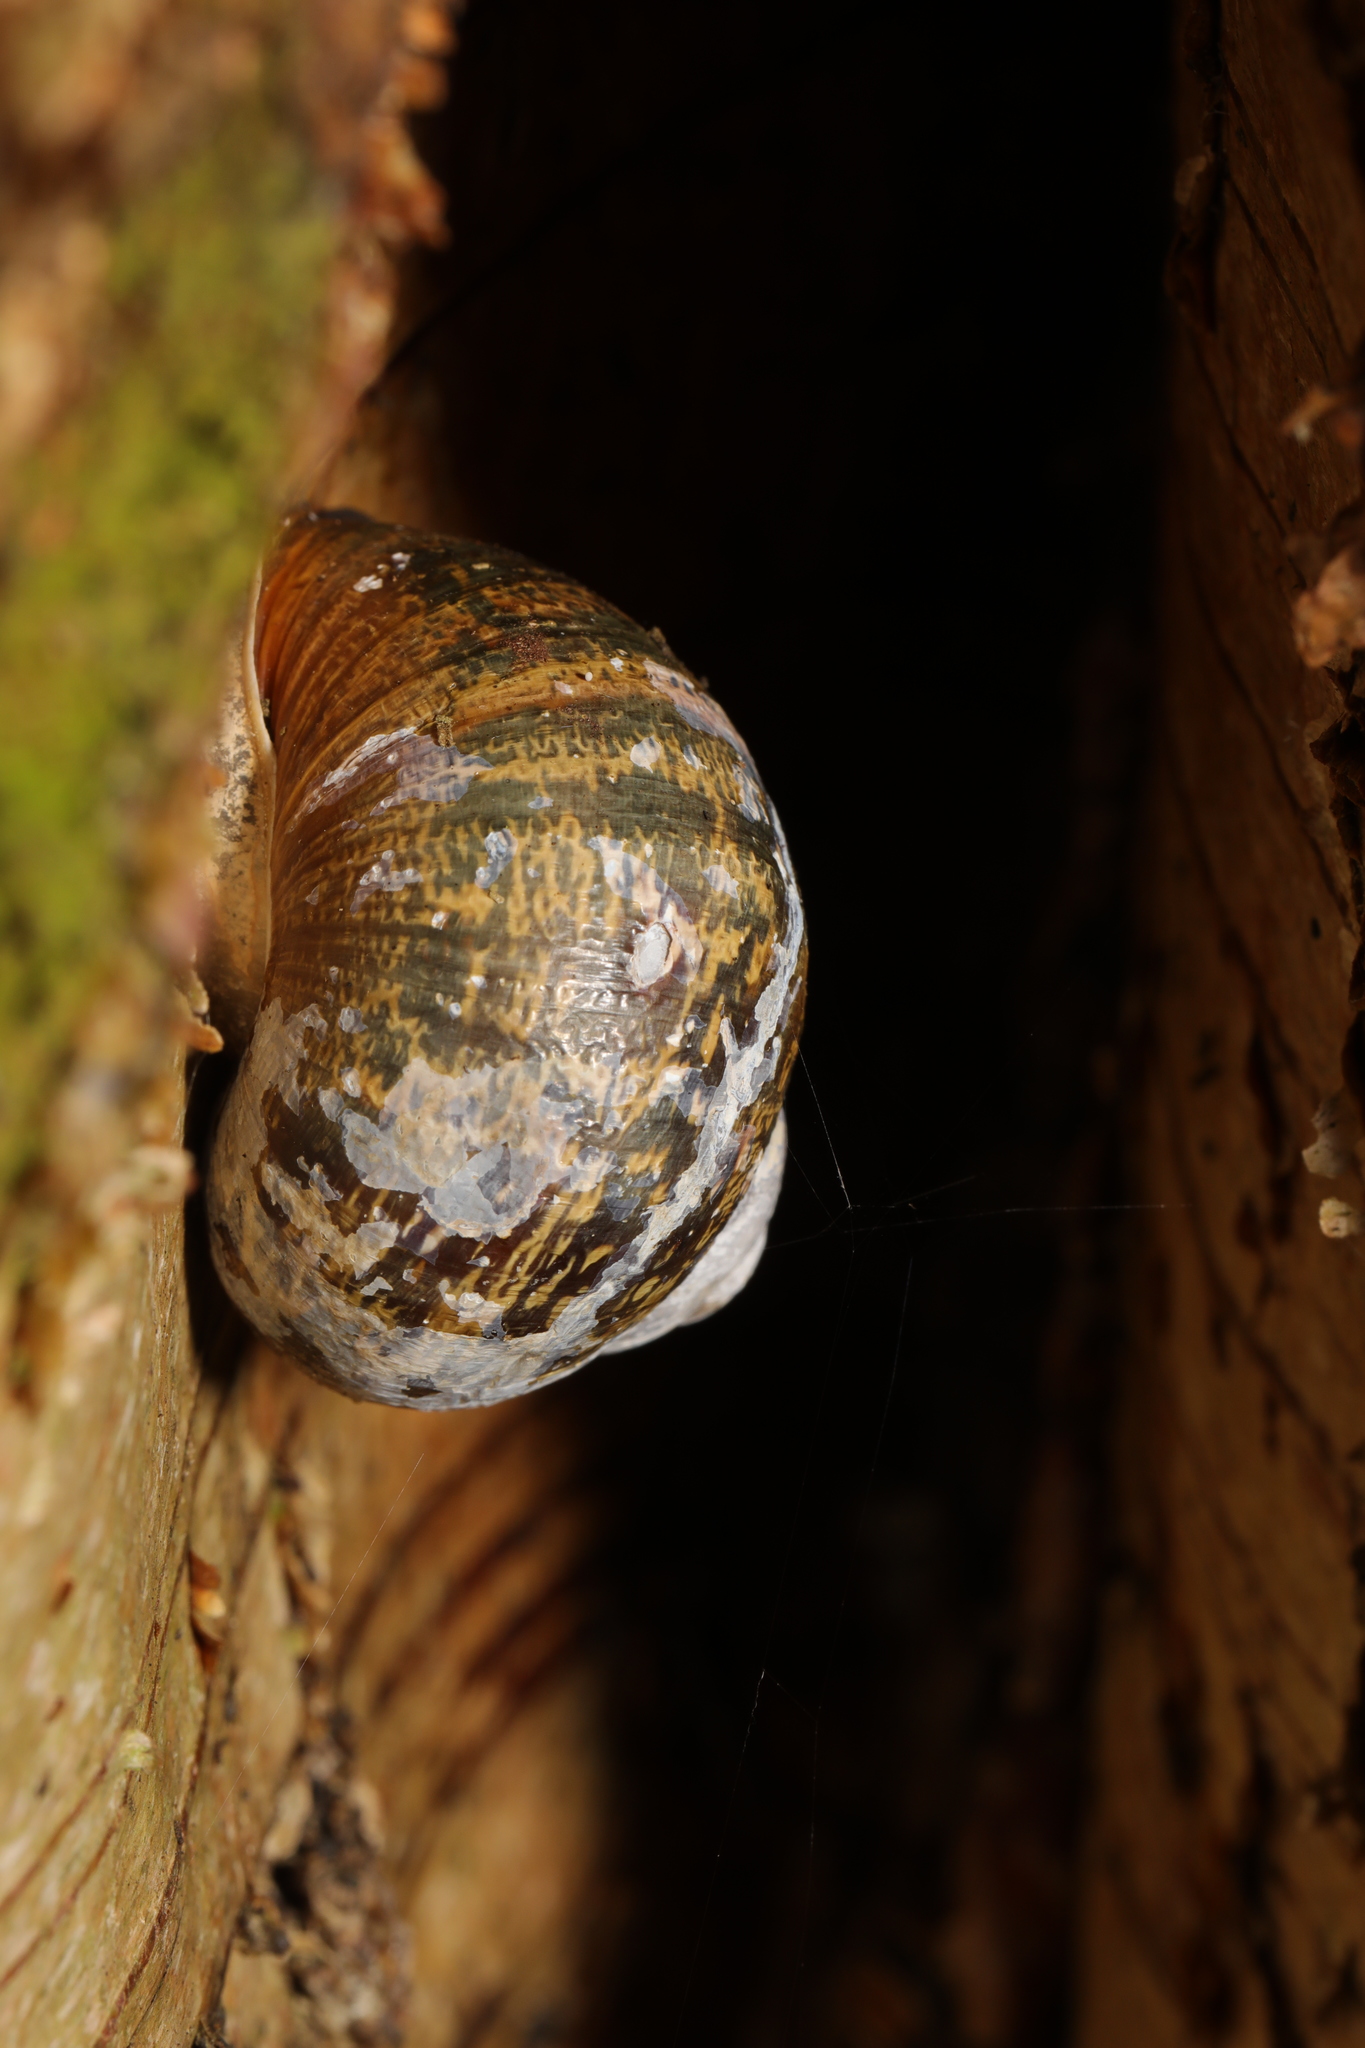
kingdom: Animalia
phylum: Mollusca
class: Gastropoda
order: Stylommatophora
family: Helicidae
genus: Cornu
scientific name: Cornu aspersum
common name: Brown garden snail
